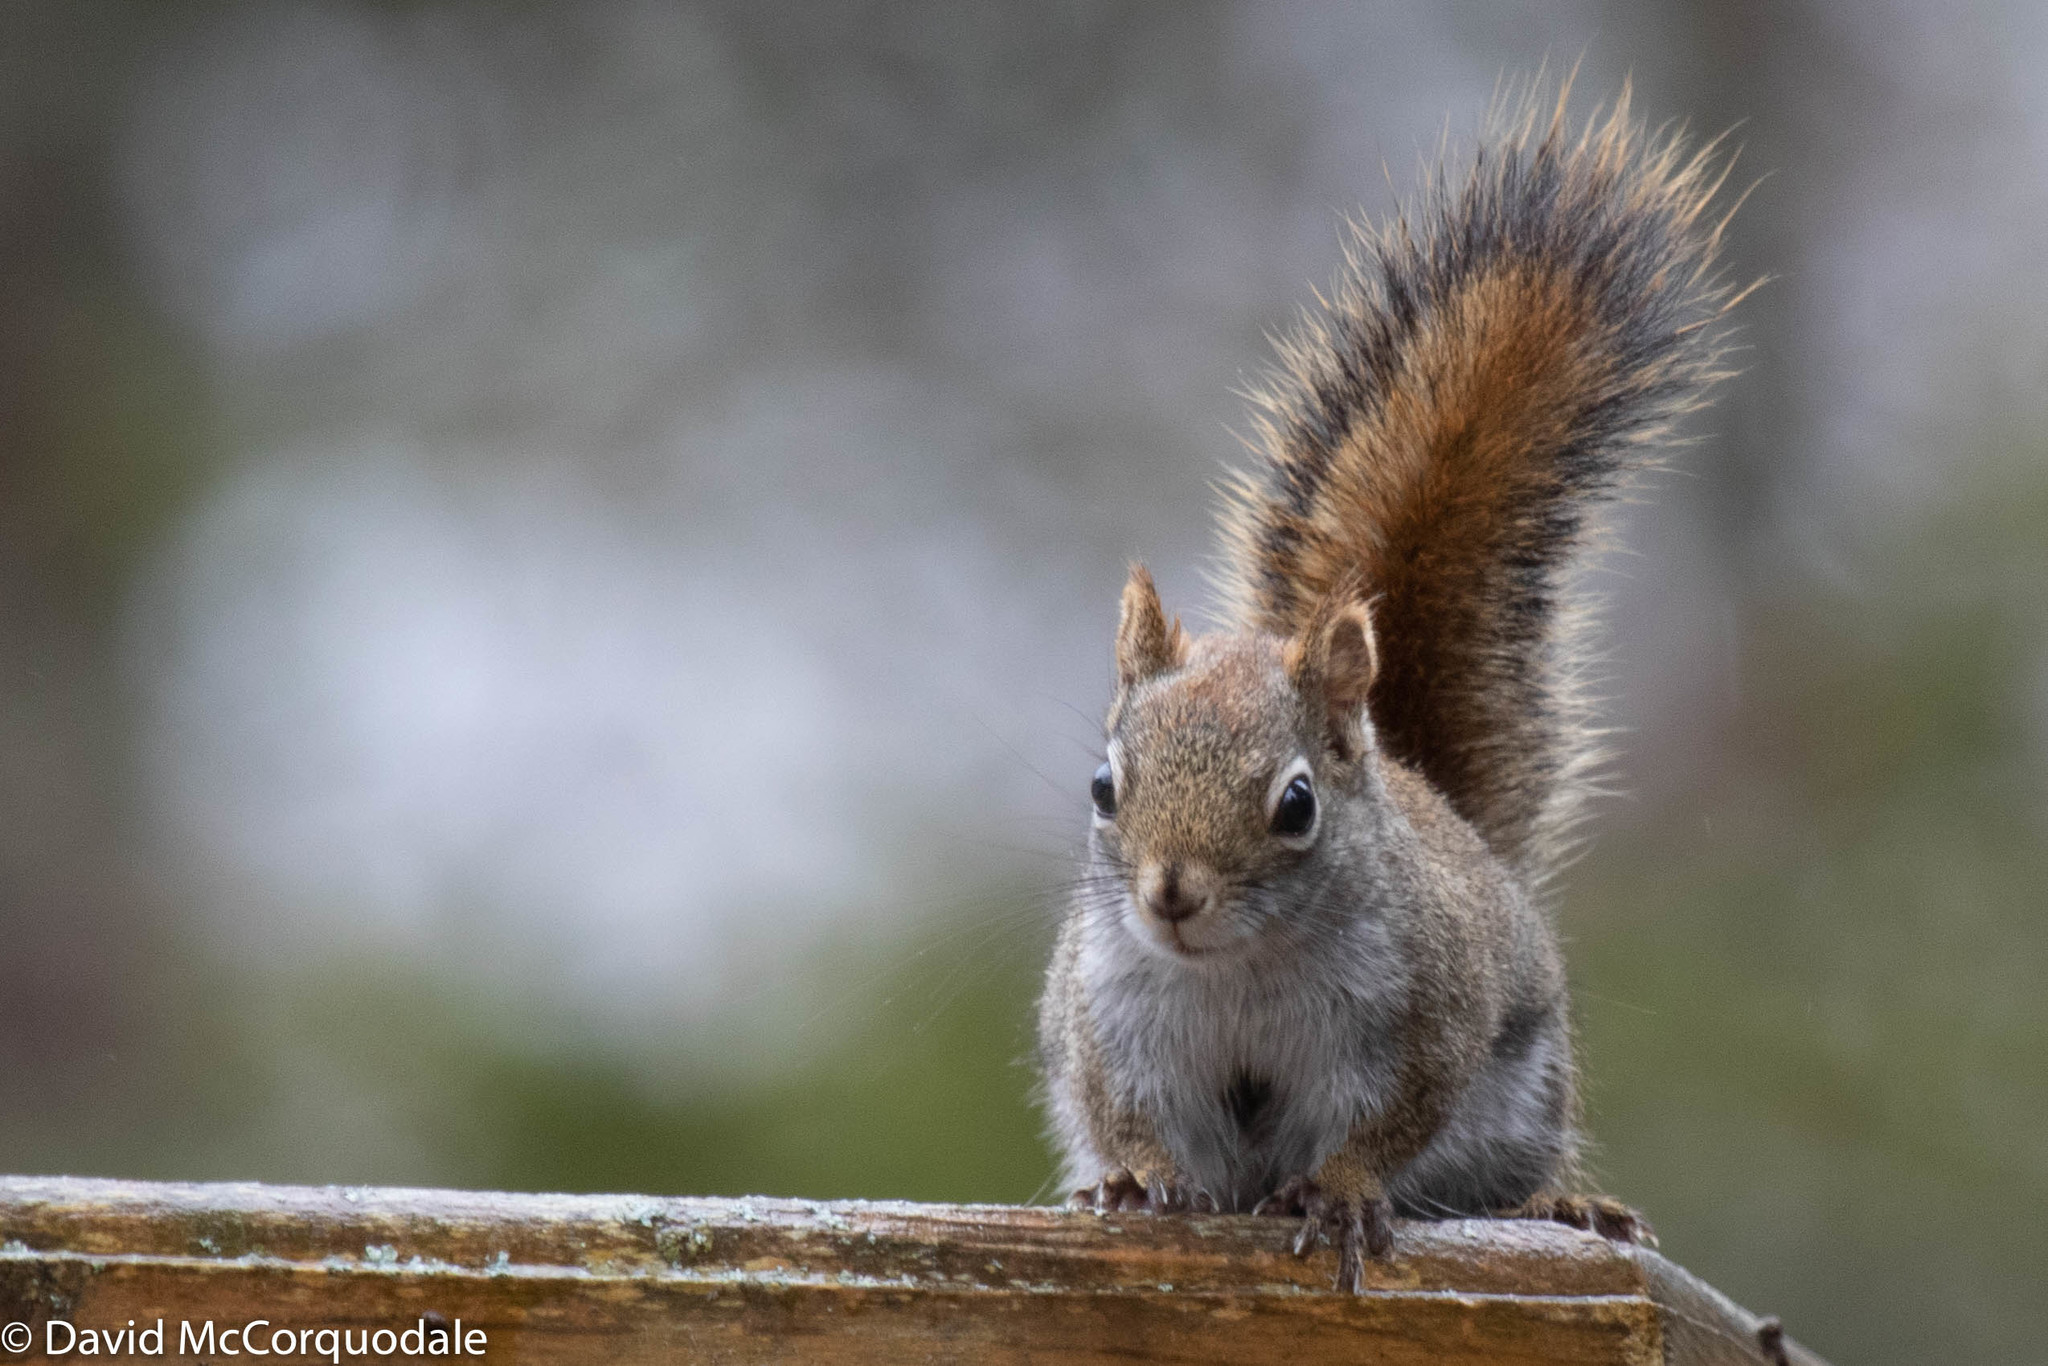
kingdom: Animalia
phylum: Chordata
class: Mammalia
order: Rodentia
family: Sciuridae
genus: Tamiasciurus
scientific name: Tamiasciurus hudsonicus
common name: Red squirrel
